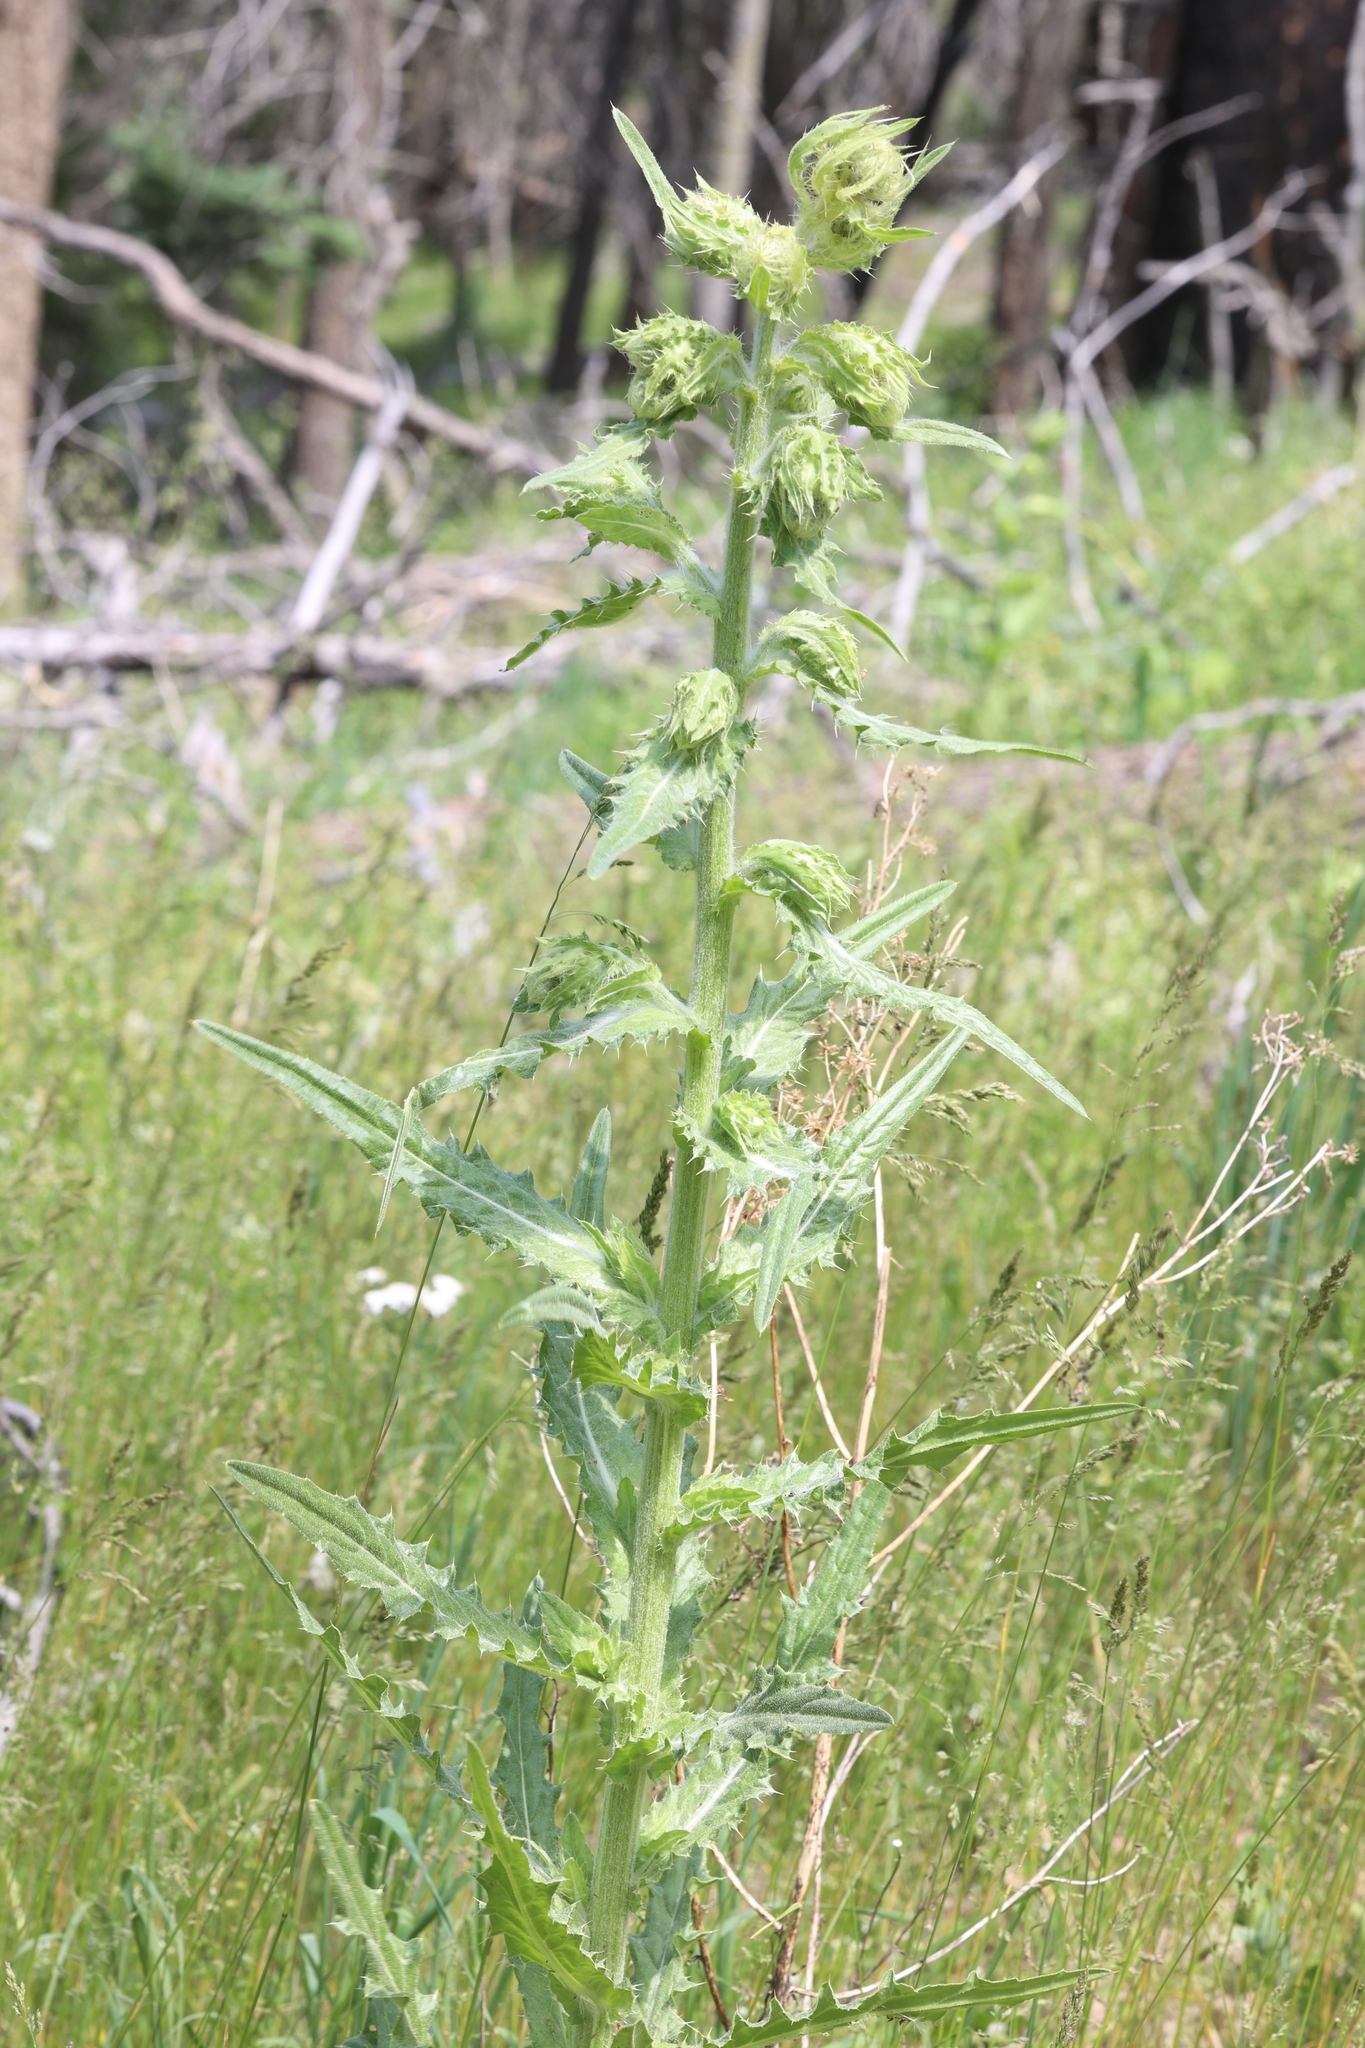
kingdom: Plantae
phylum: Tracheophyta
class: Magnoliopsida
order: Asterales
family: Asteraceae
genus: Cirsium
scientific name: Cirsium parryi
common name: Parry's thistle
